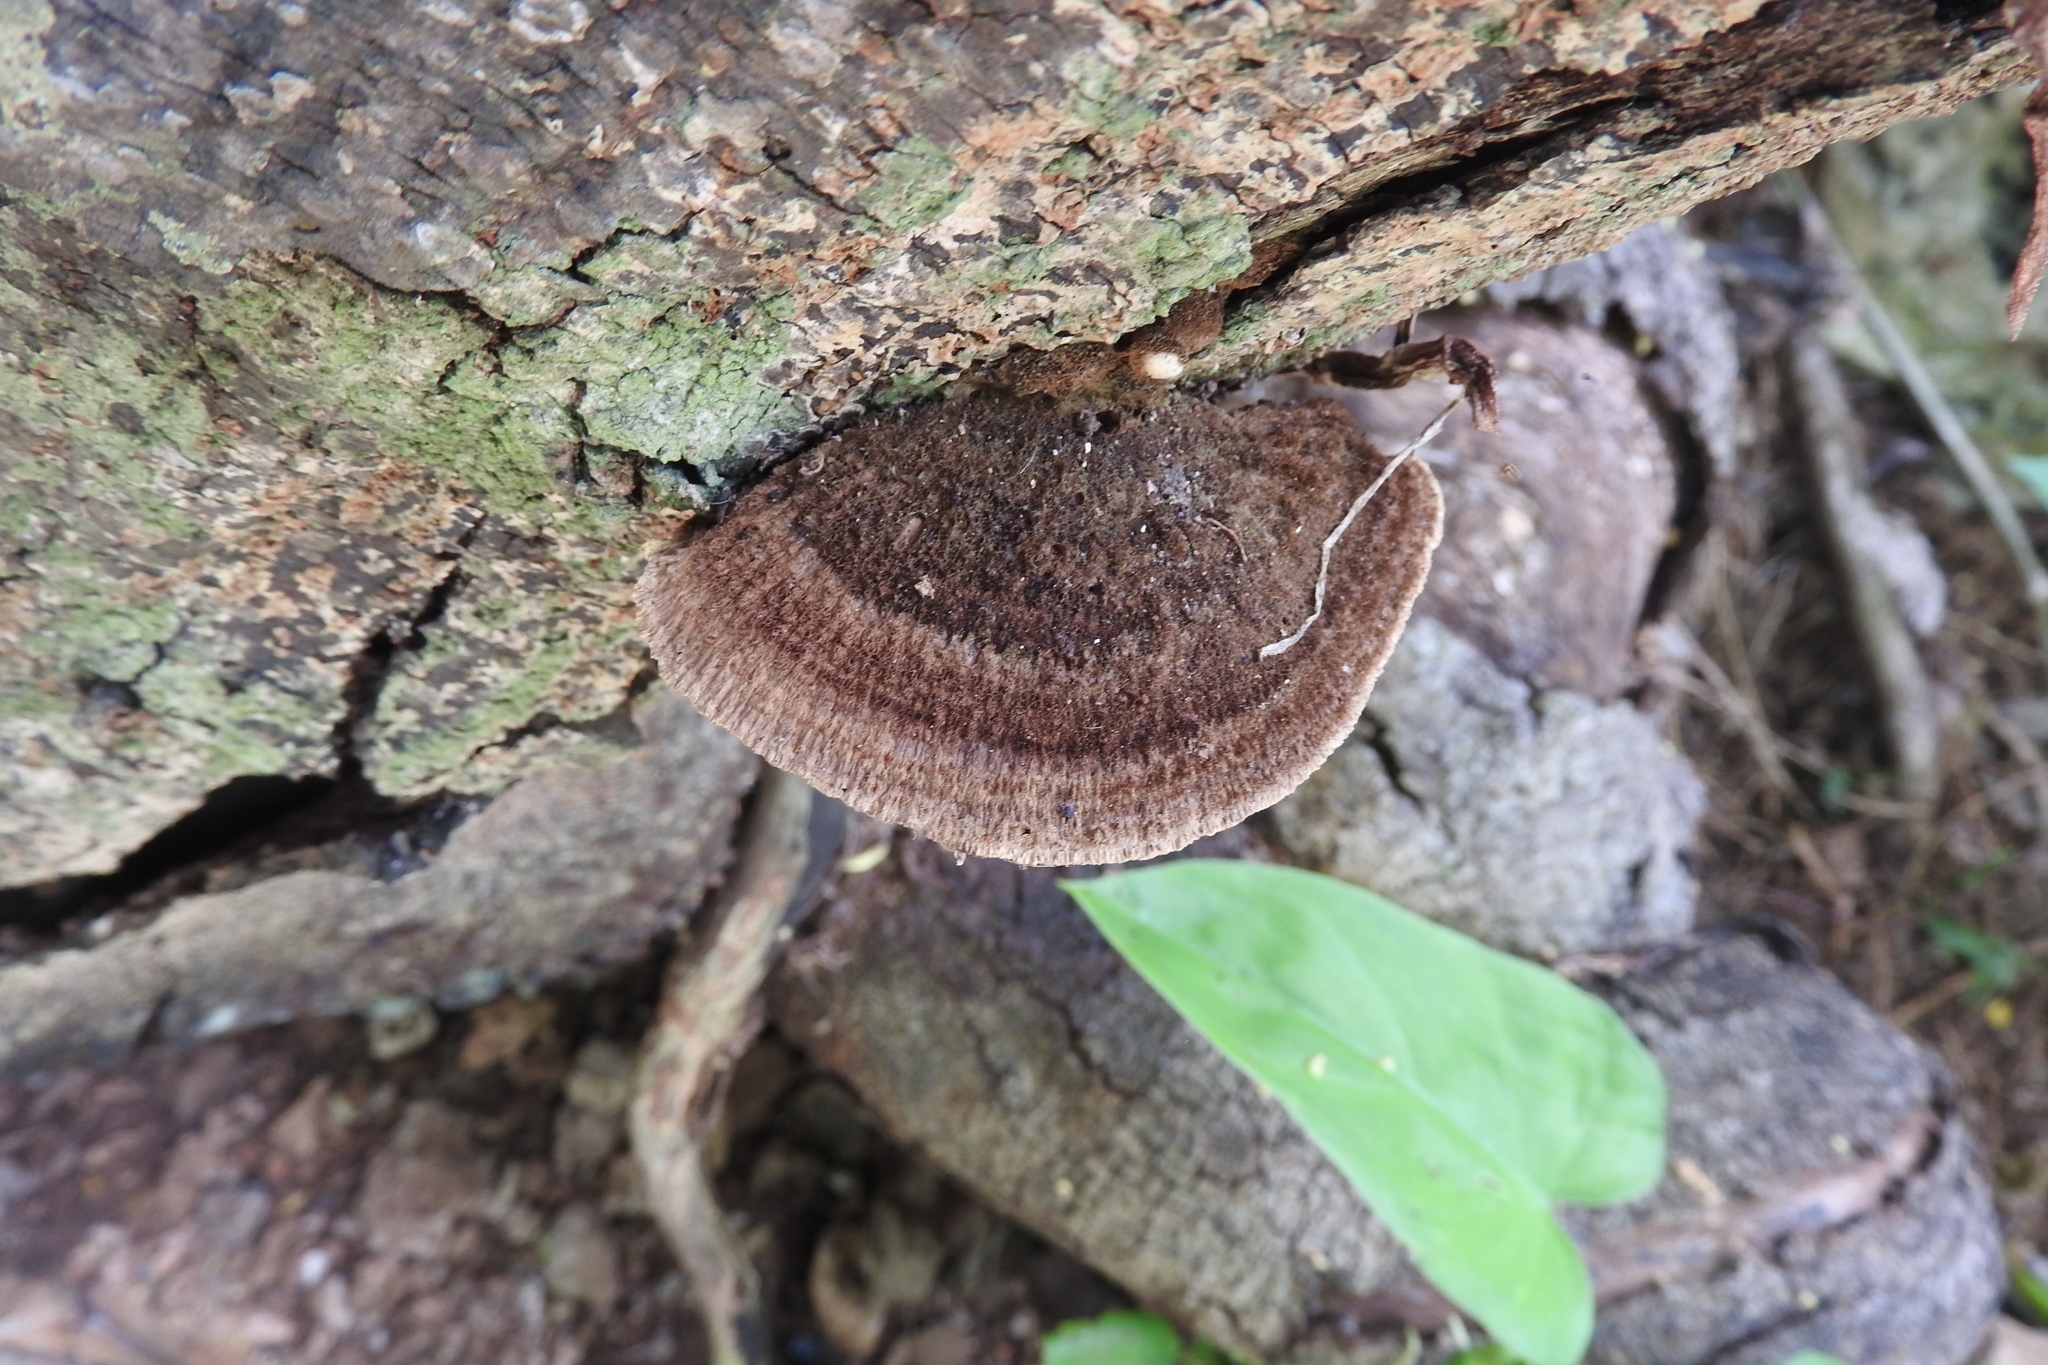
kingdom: Fungi
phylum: Basidiomycota
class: Agaricomycetes
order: Polyporales
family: Cerrenaceae
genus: Cerrena
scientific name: Cerrena hydnoides
